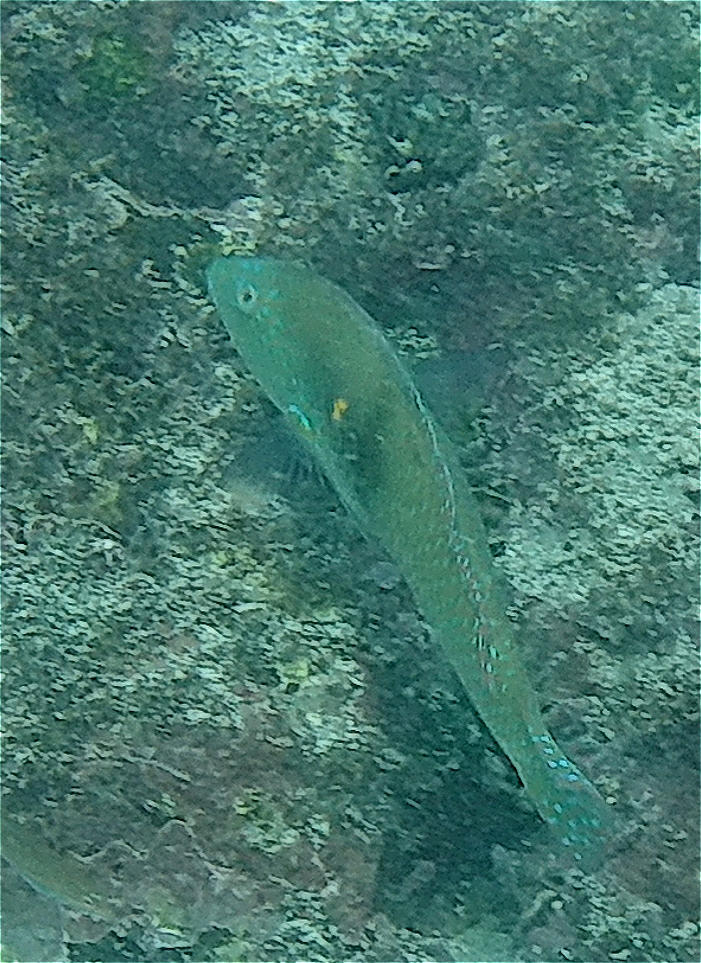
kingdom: Animalia
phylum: Chordata
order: Perciformes
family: Labridae
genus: Halichoeres
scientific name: Halichoeres nicholsi
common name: Spinster wrasse
